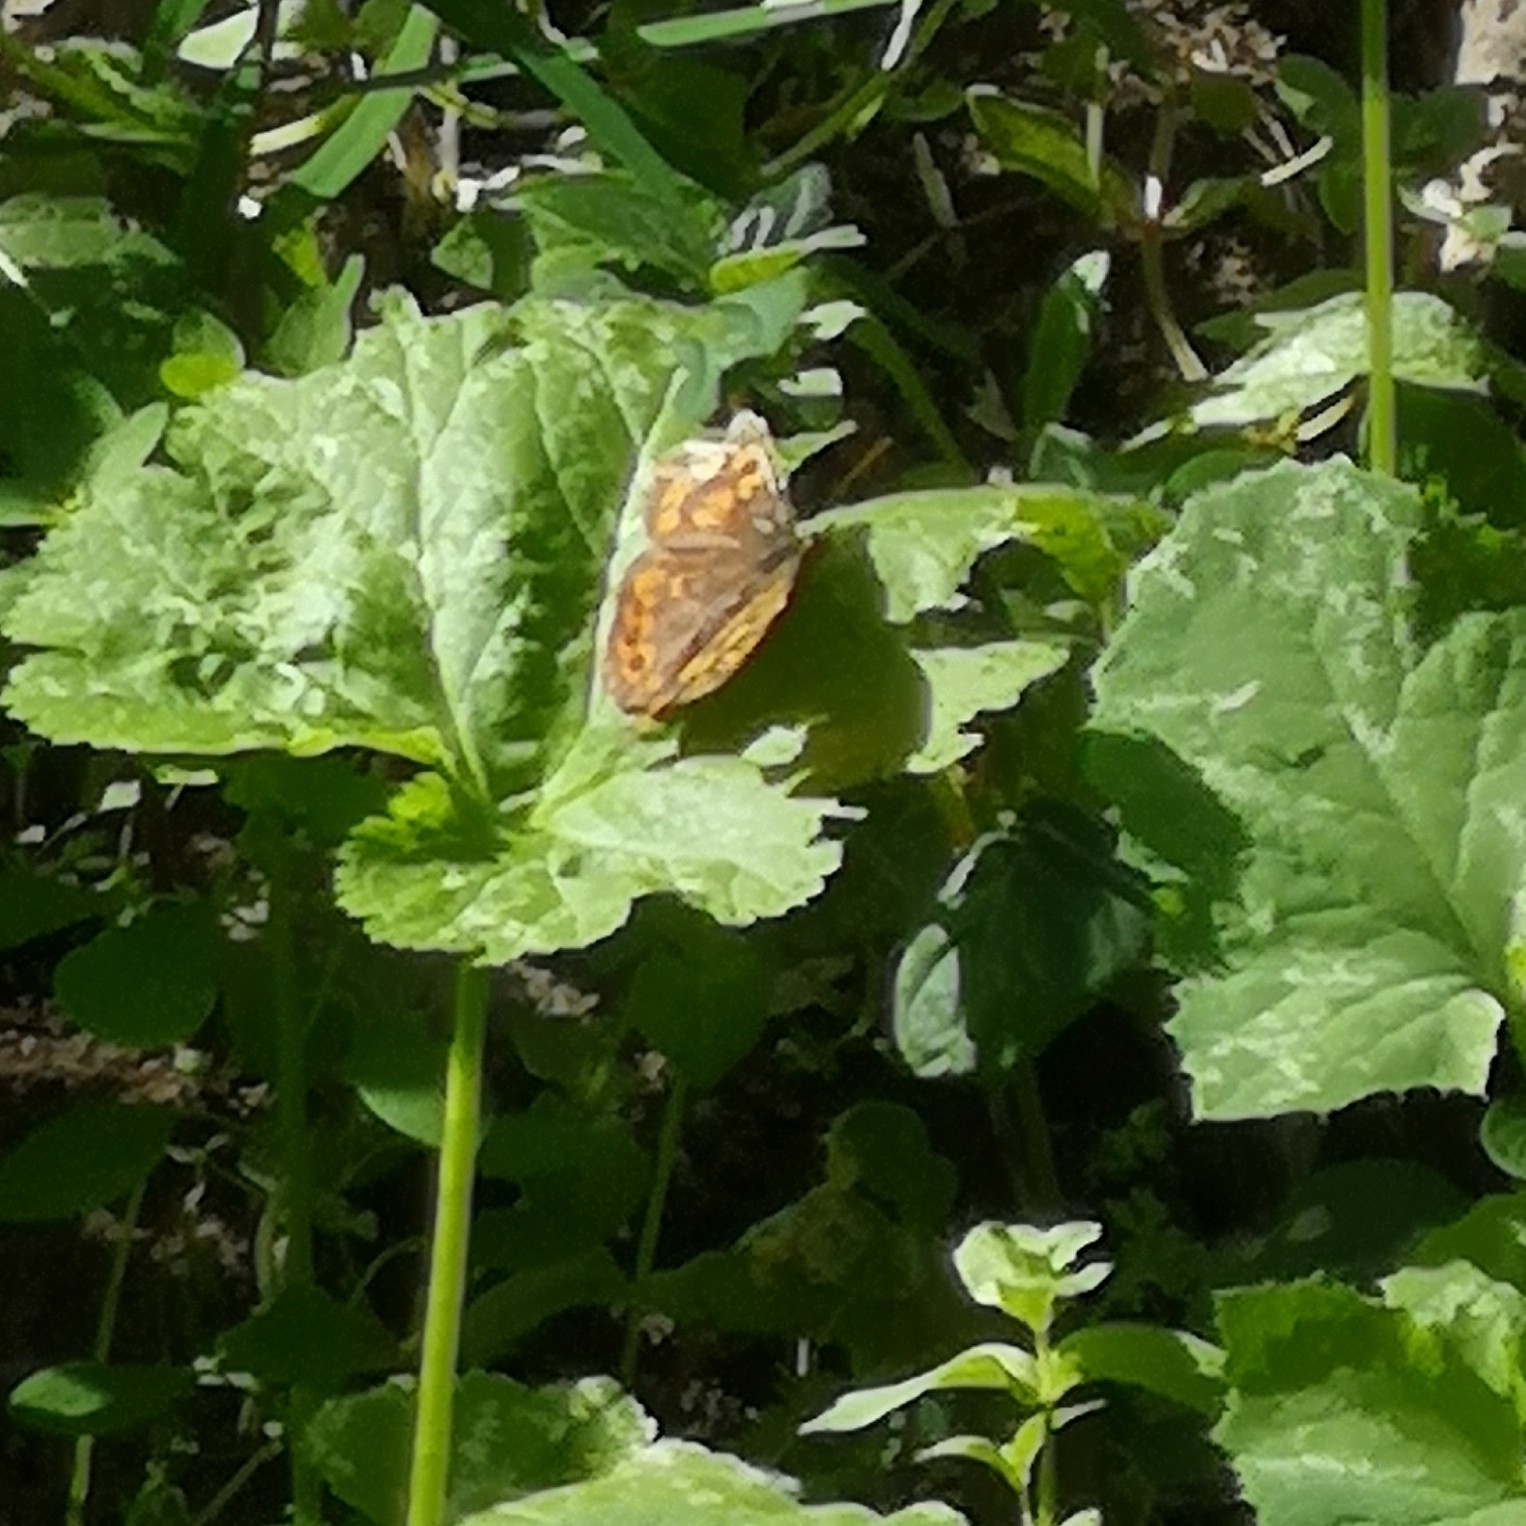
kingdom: Animalia
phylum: Arthropoda
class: Insecta
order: Lepidoptera
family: Nymphalidae
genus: Pararge
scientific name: Pararge aegeria
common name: Speckled wood
